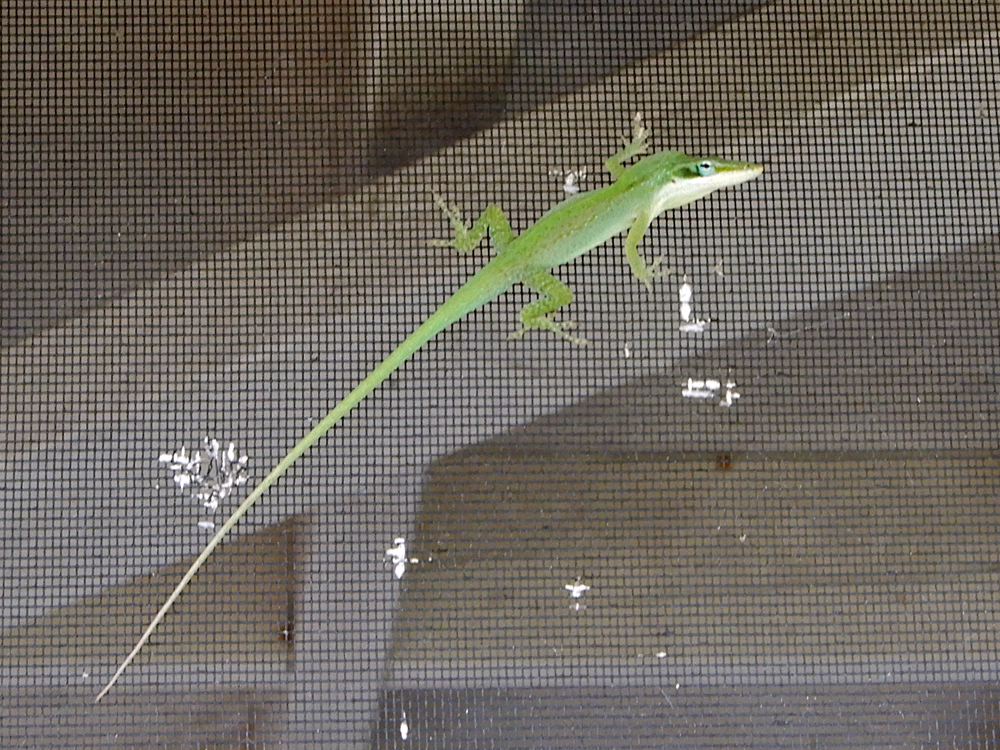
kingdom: Animalia
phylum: Chordata
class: Squamata
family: Dactyloidae
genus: Anolis
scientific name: Anolis carolinensis
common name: Green anole
